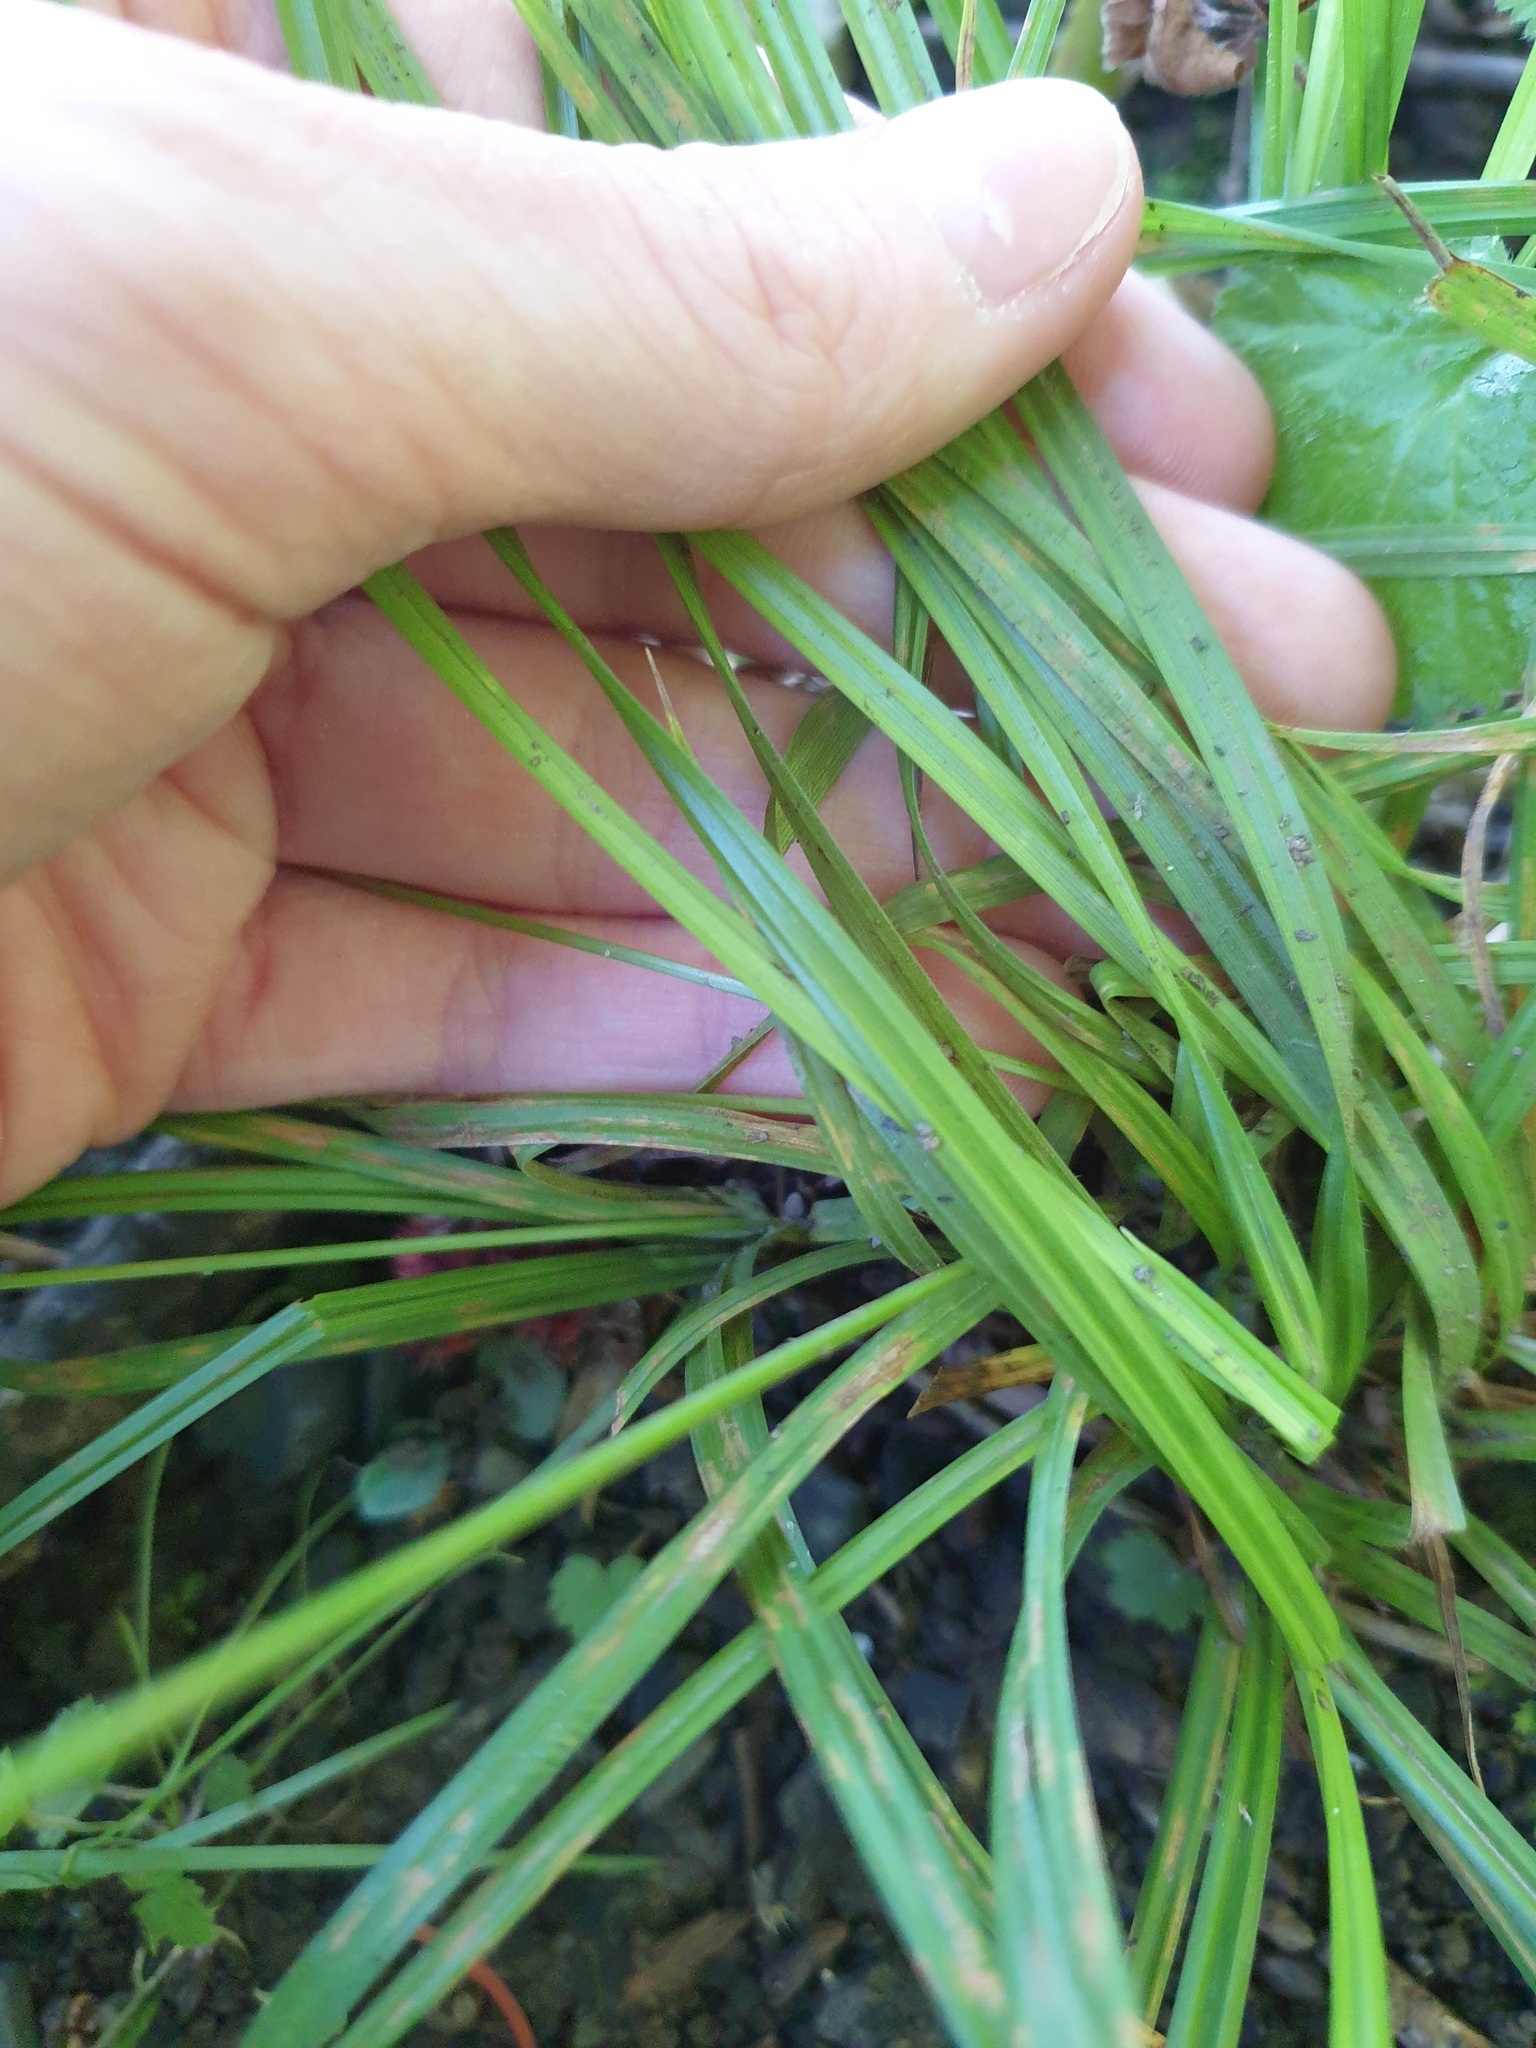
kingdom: Plantae
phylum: Tracheophyta
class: Liliopsida
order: Poales
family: Cyperaceae
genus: Carex
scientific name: Carex pallescens
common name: Pale sedge
